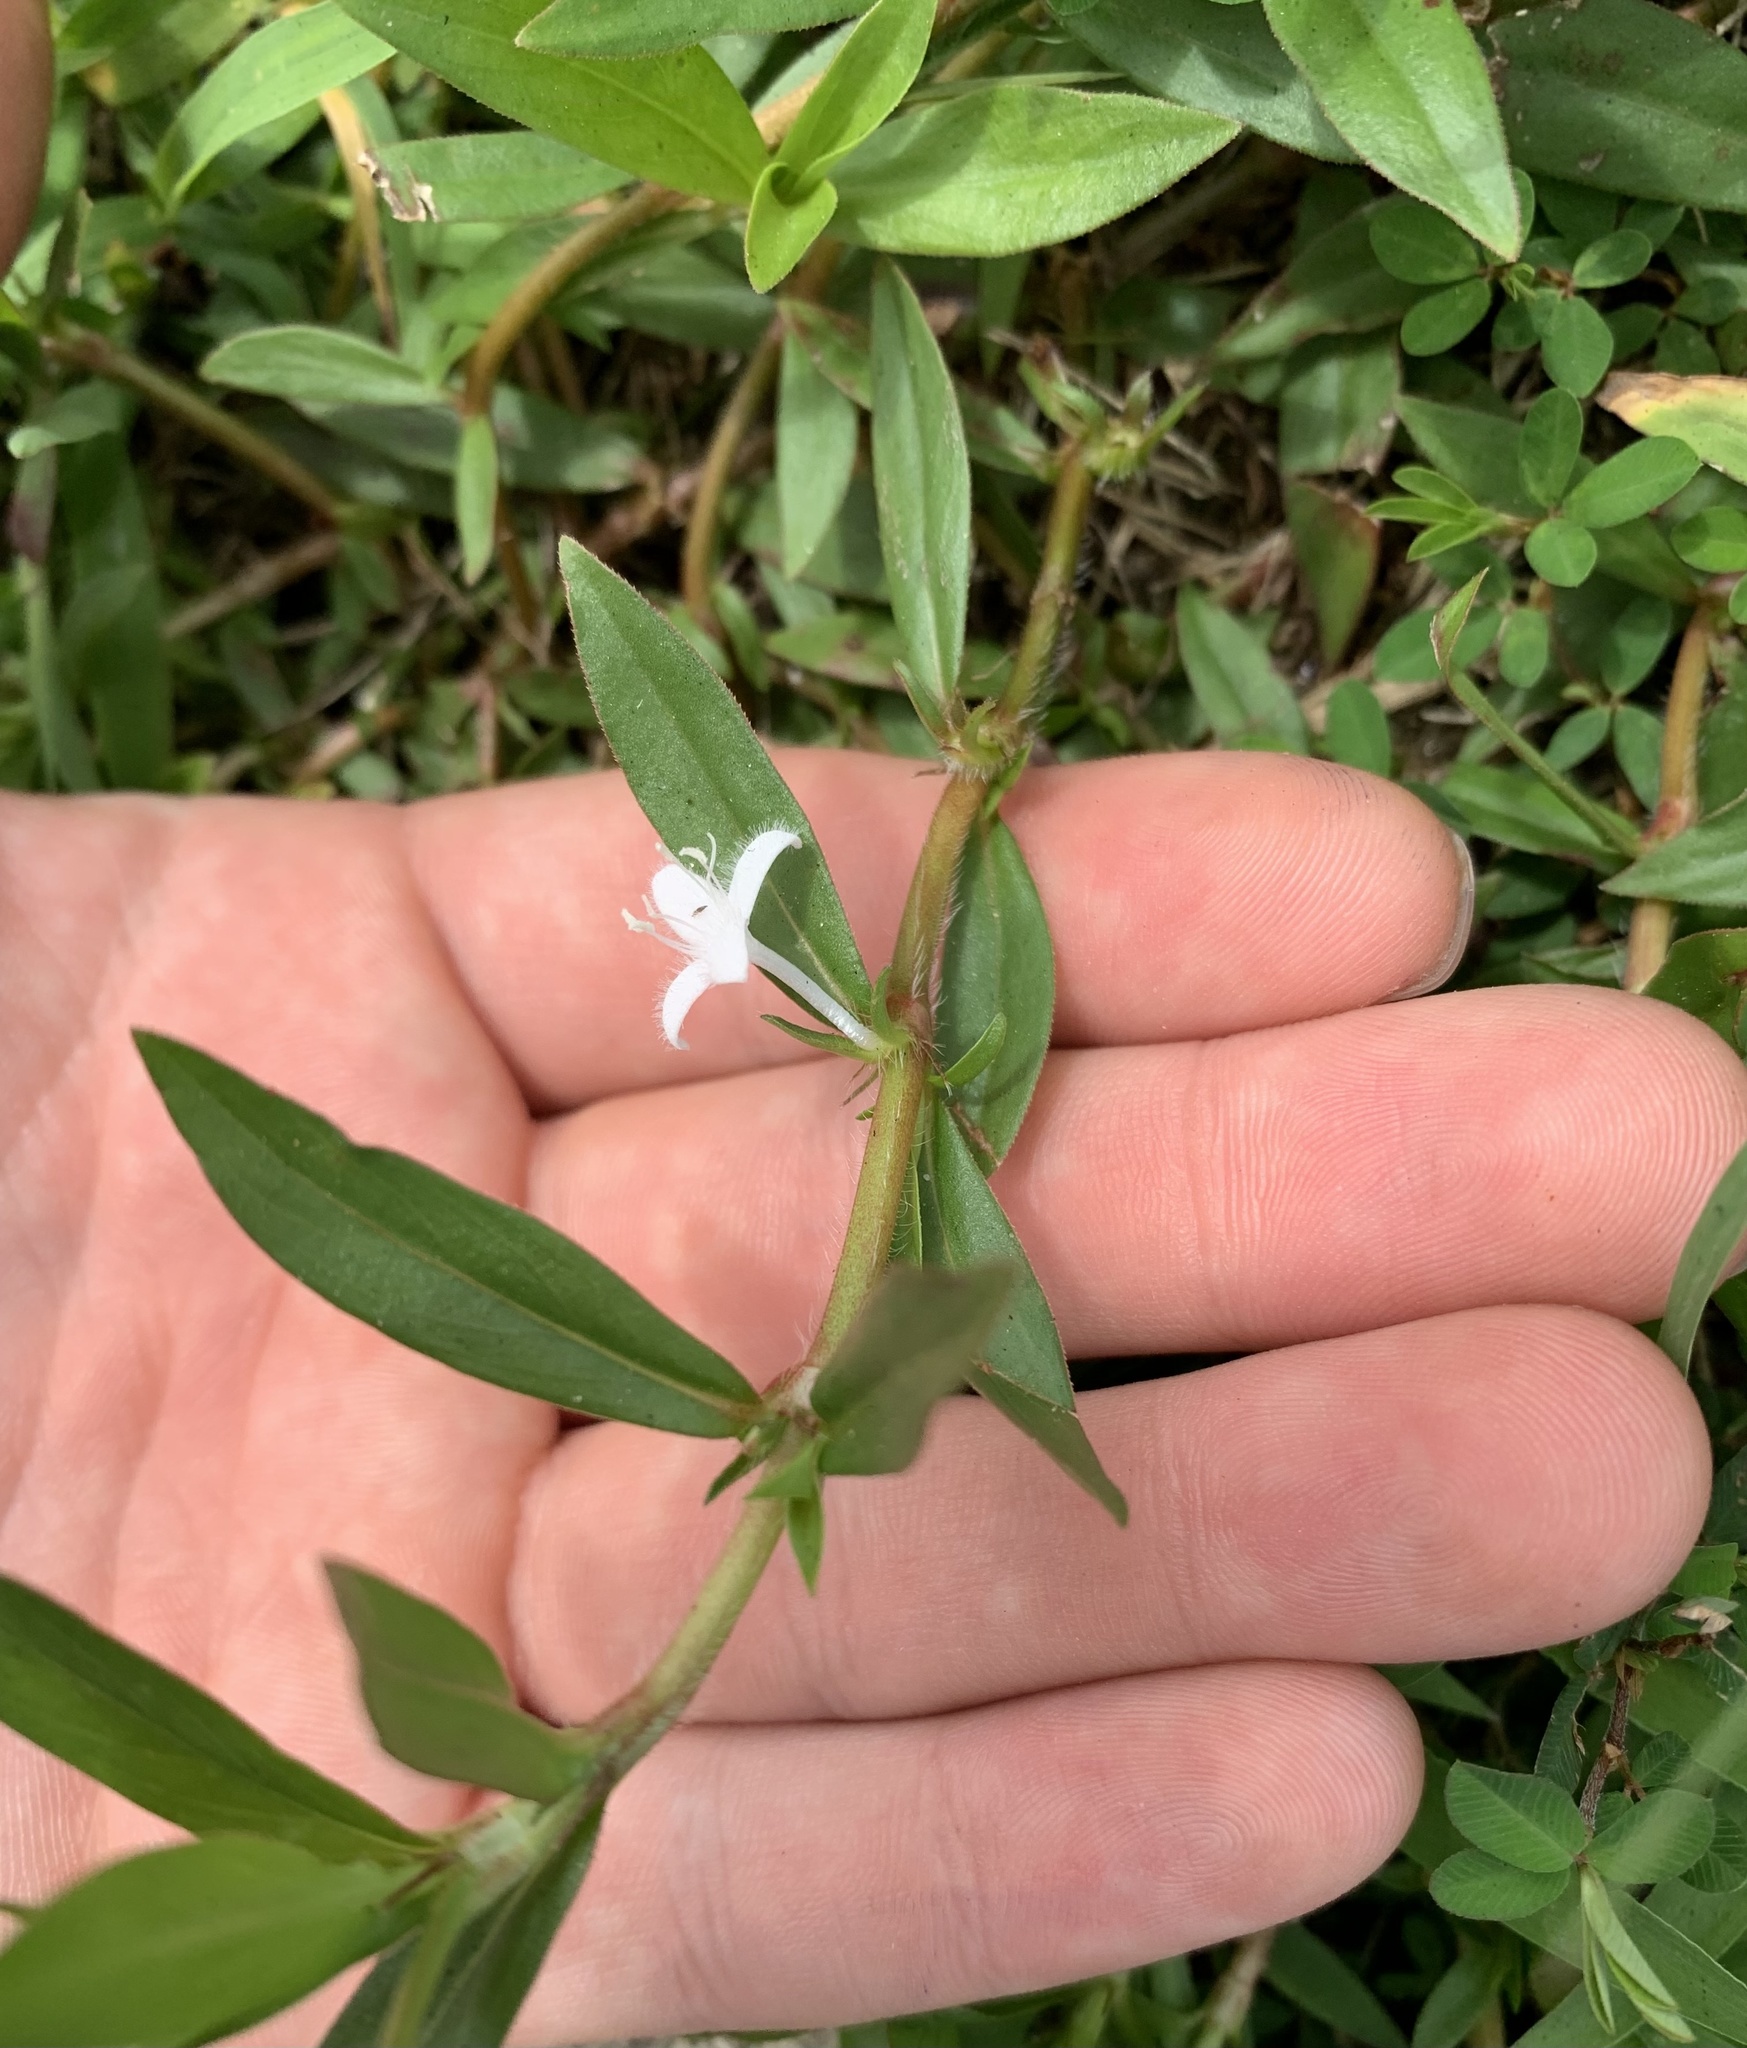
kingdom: Plantae
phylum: Tracheophyta
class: Magnoliopsida
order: Gentianales
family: Rubiaceae
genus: Diodia
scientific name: Diodia virginiana
